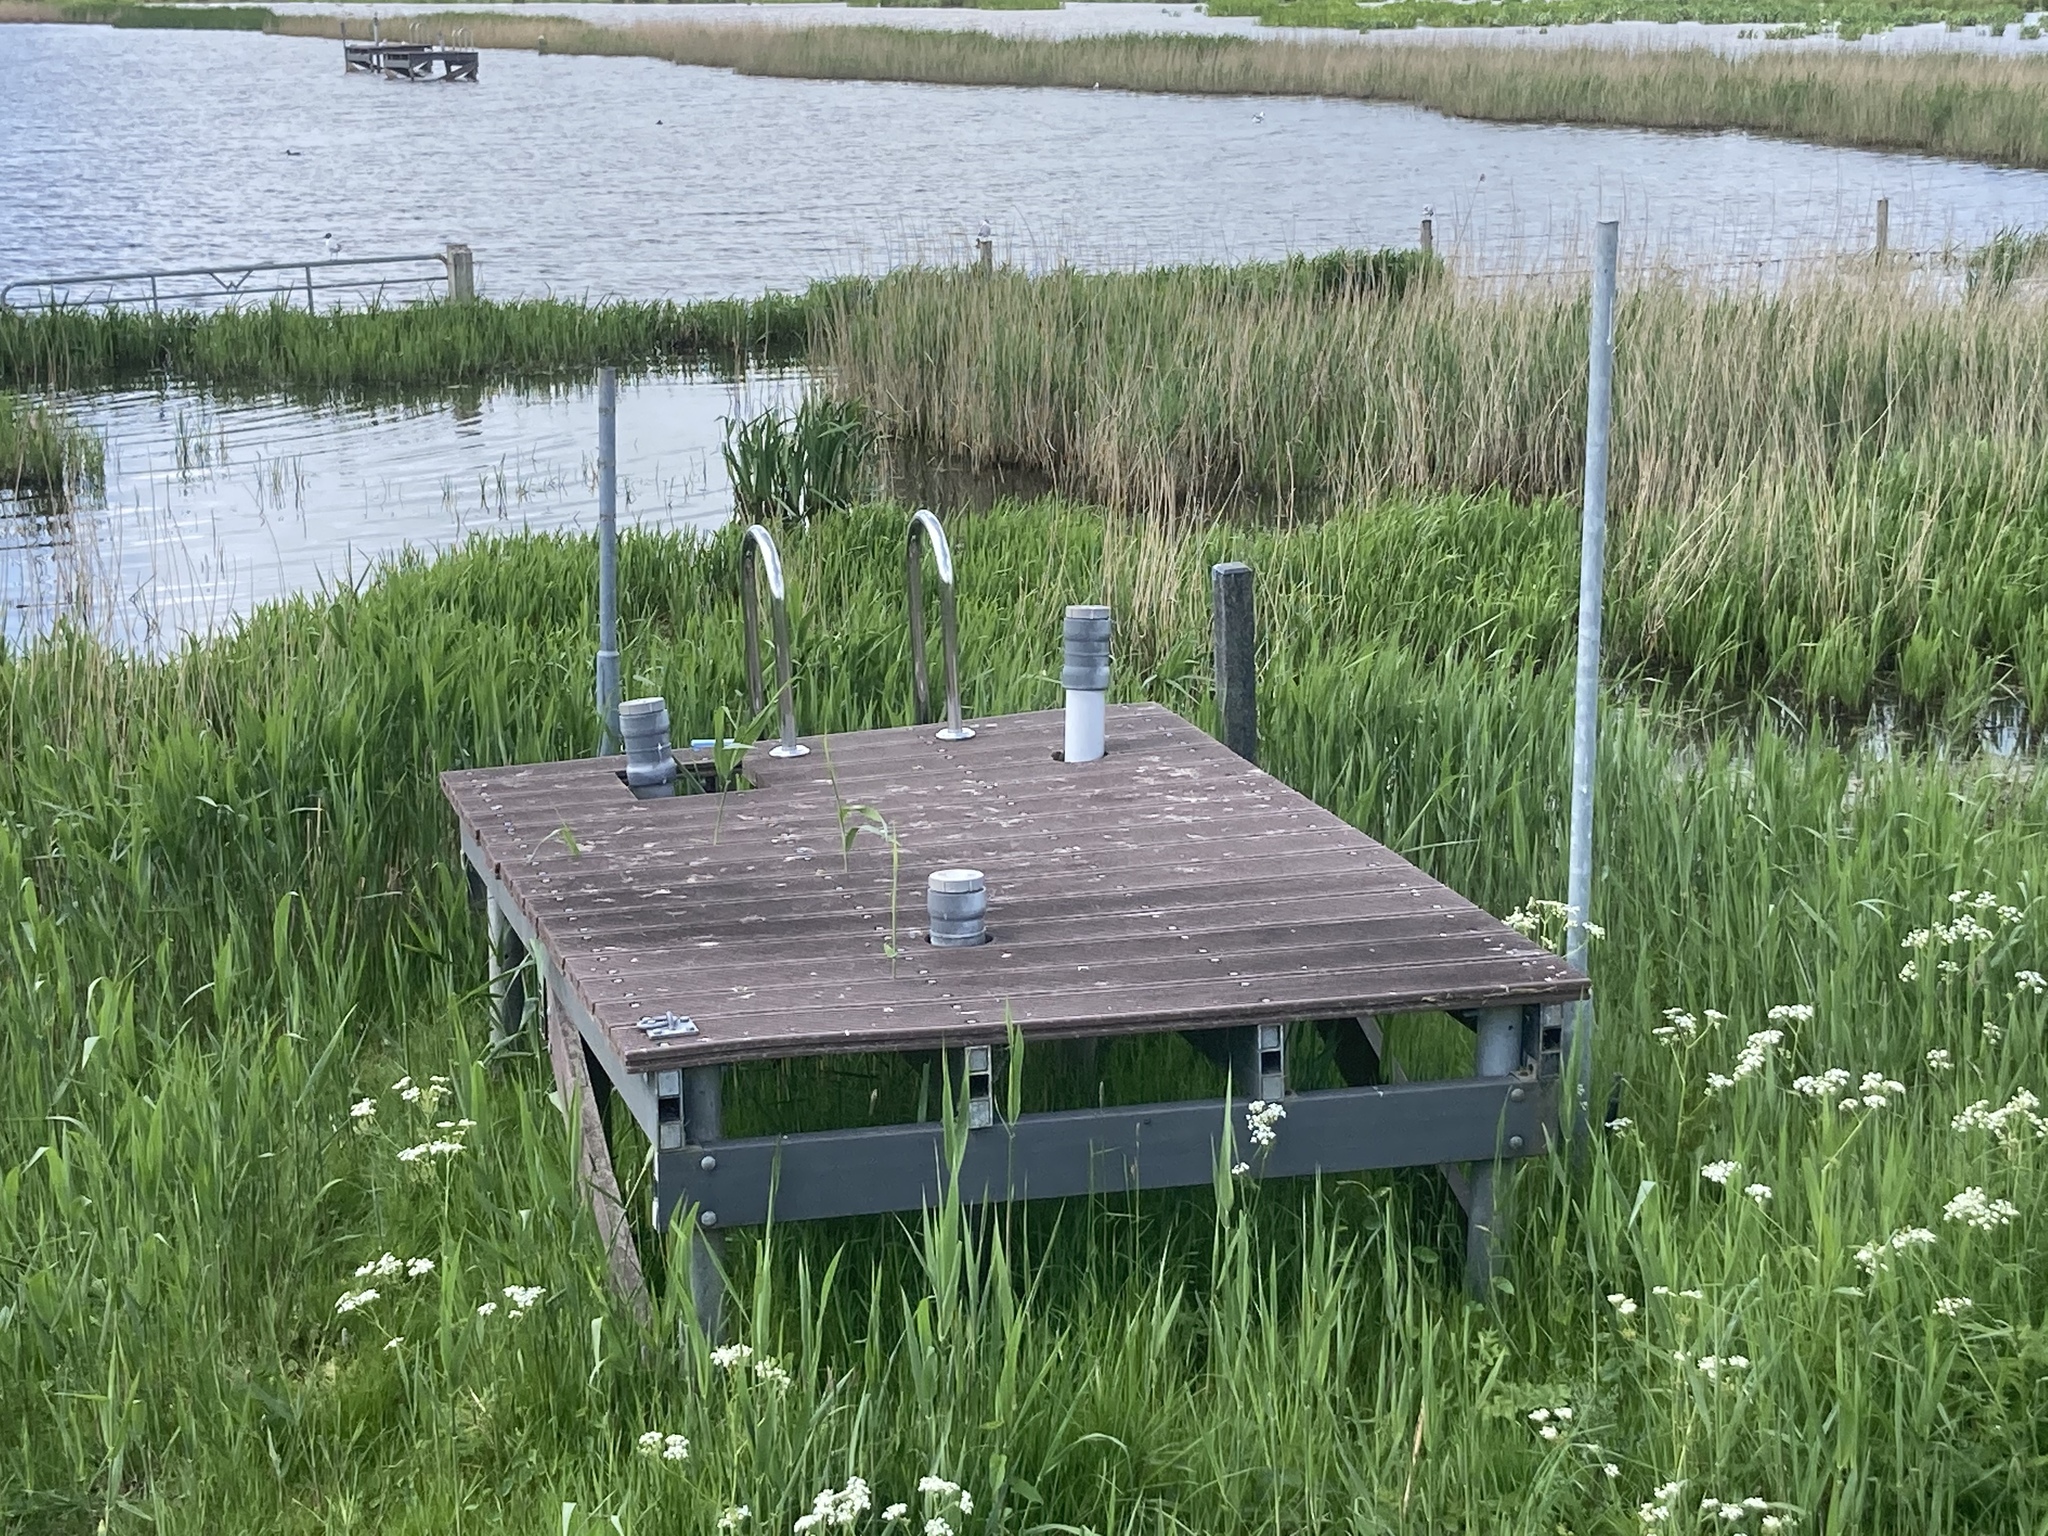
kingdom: Plantae
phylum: Tracheophyta
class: Liliopsida
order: Poales
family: Poaceae
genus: Phragmites
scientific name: Phragmites australis
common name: Common reed
